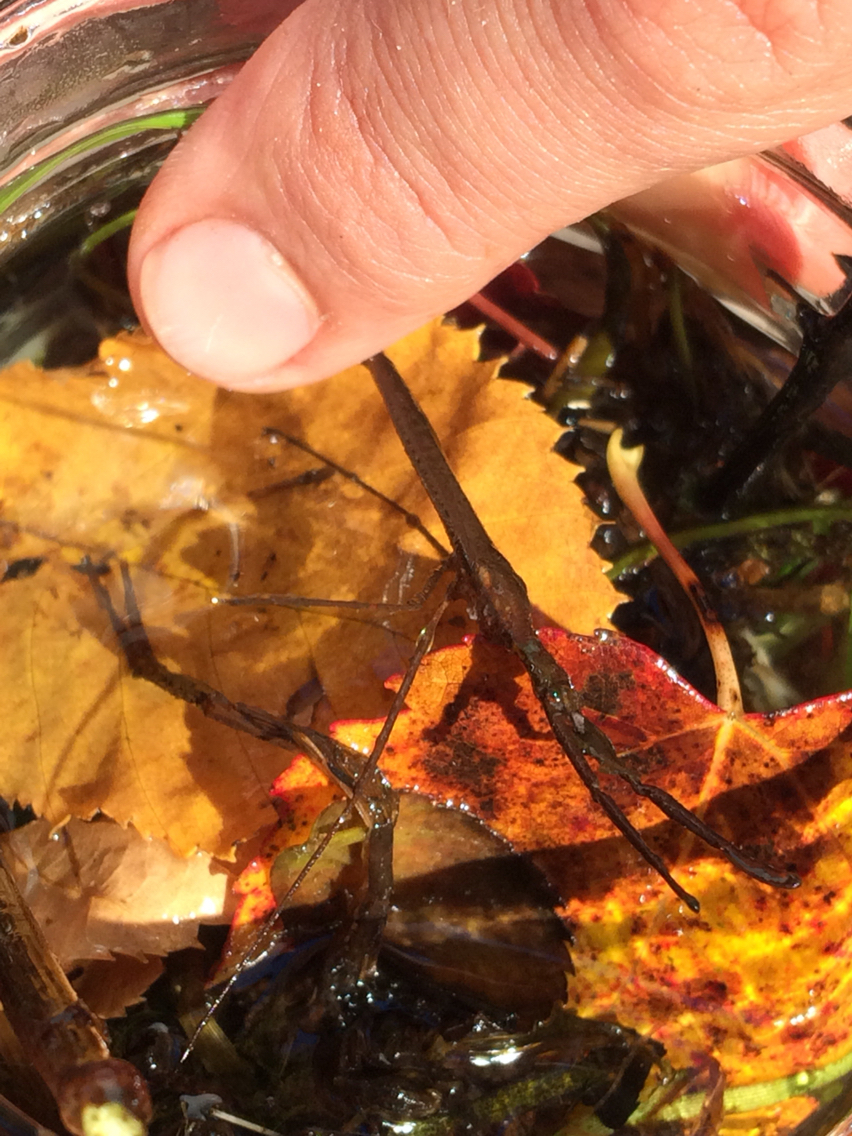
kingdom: Animalia
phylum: Arthropoda
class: Insecta
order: Hemiptera
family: Nepidae
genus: Ranatra
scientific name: Ranatra
